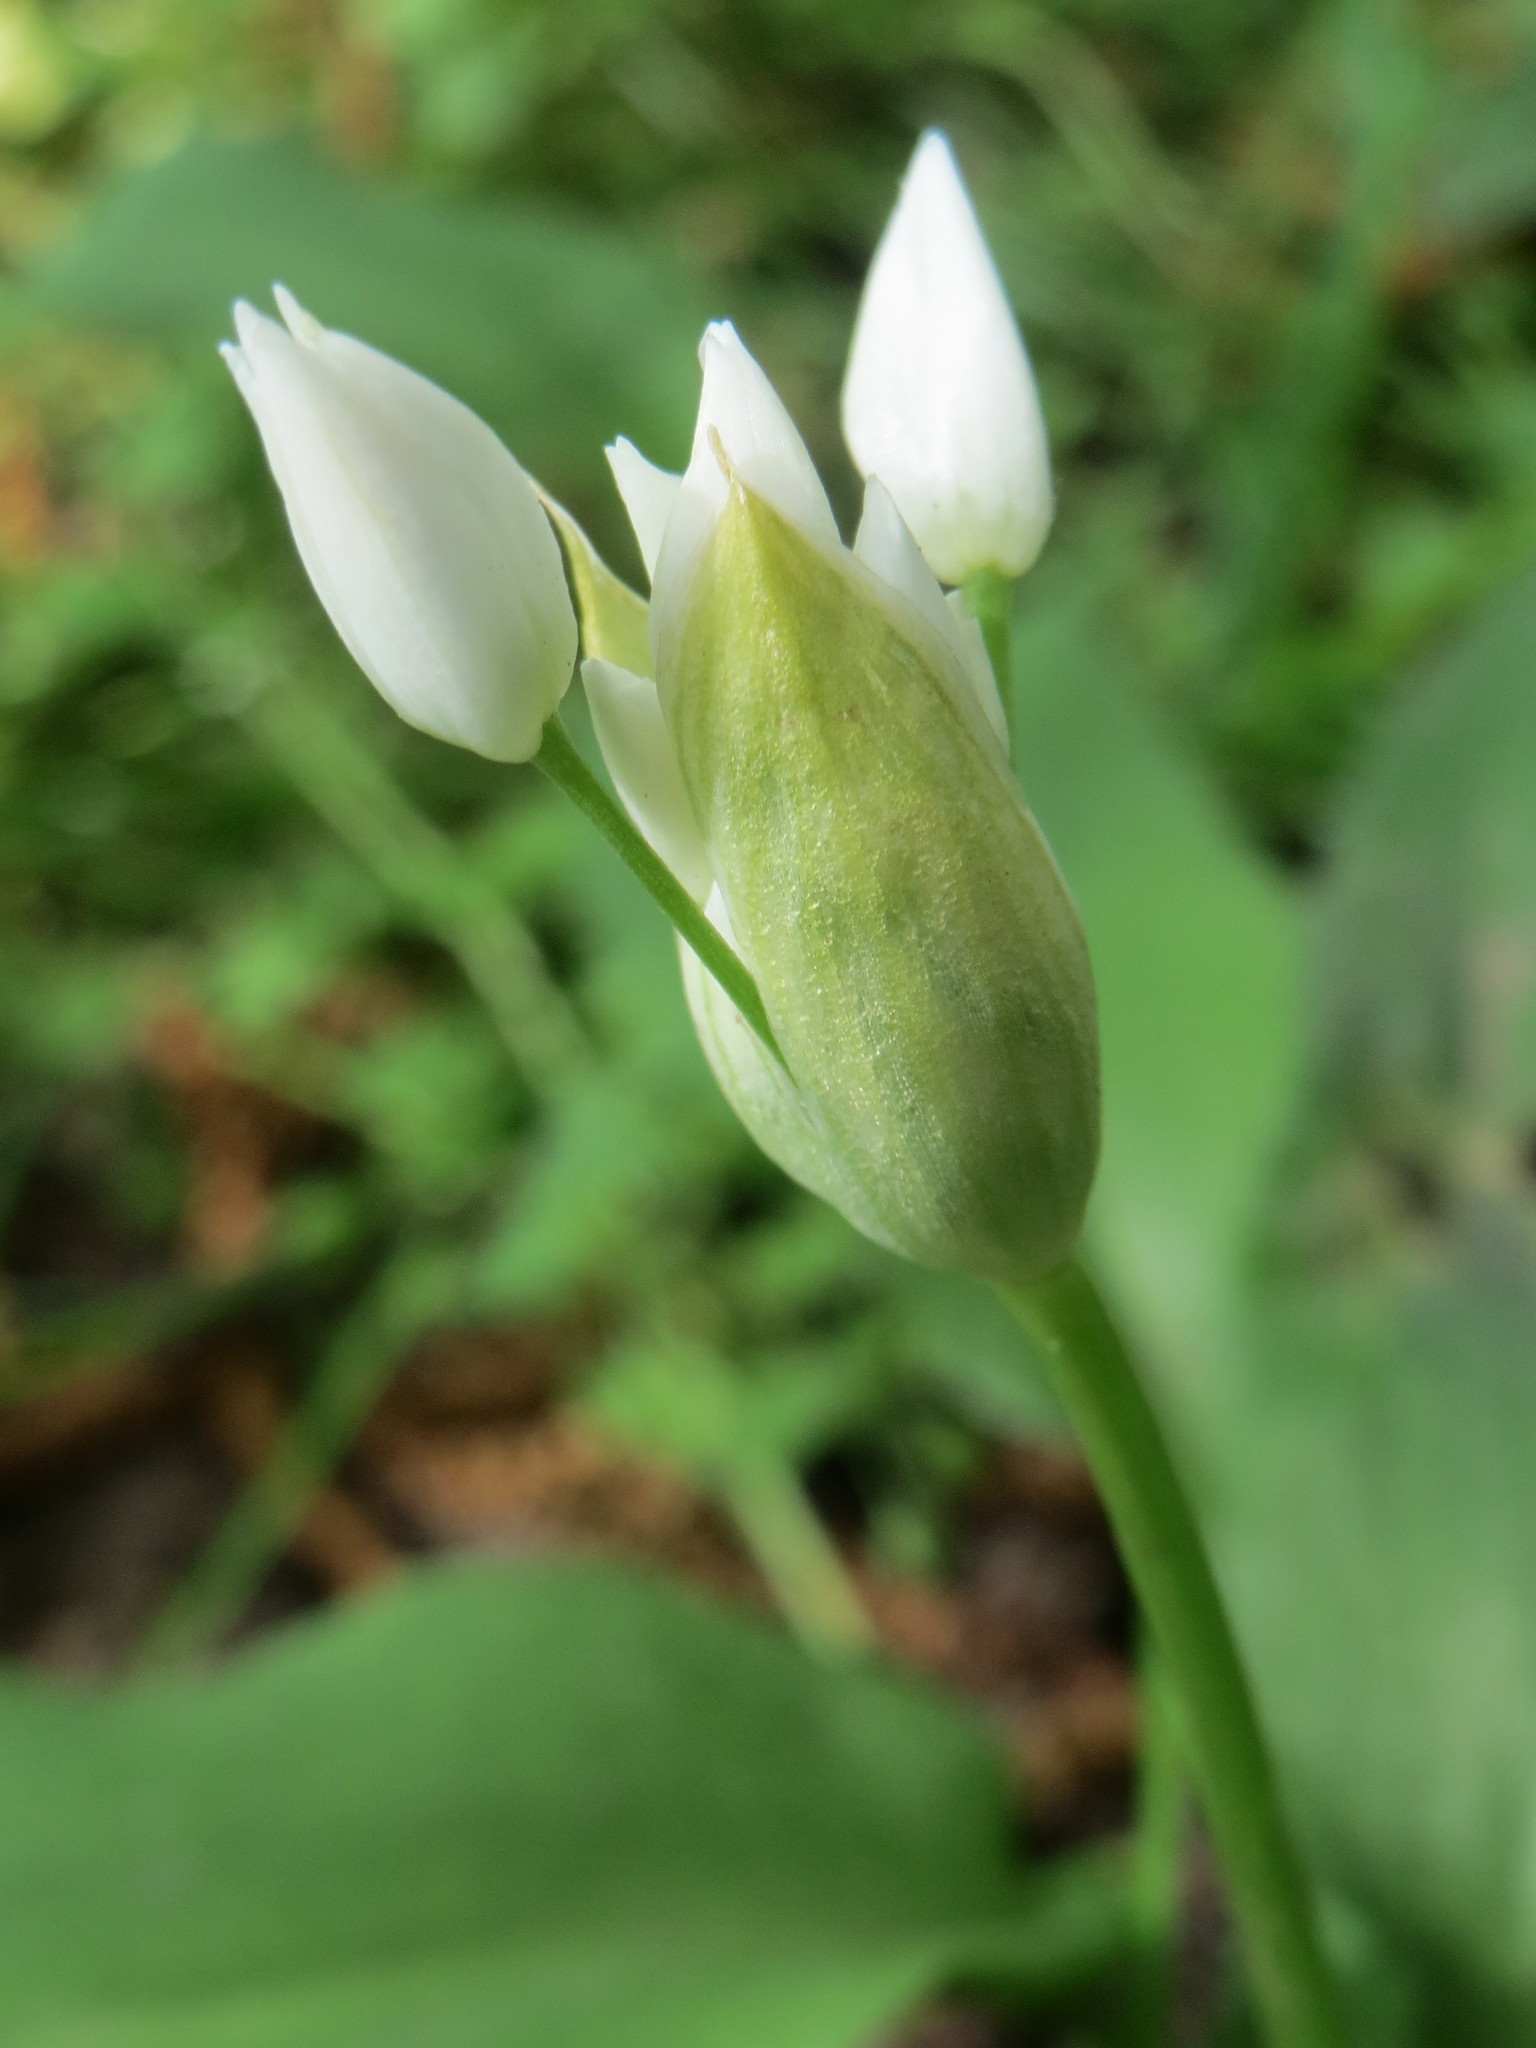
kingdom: Plantae
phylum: Tracheophyta
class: Liliopsida
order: Asparagales
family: Amaryllidaceae
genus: Allium
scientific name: Allium ursinum
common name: Ramsons
